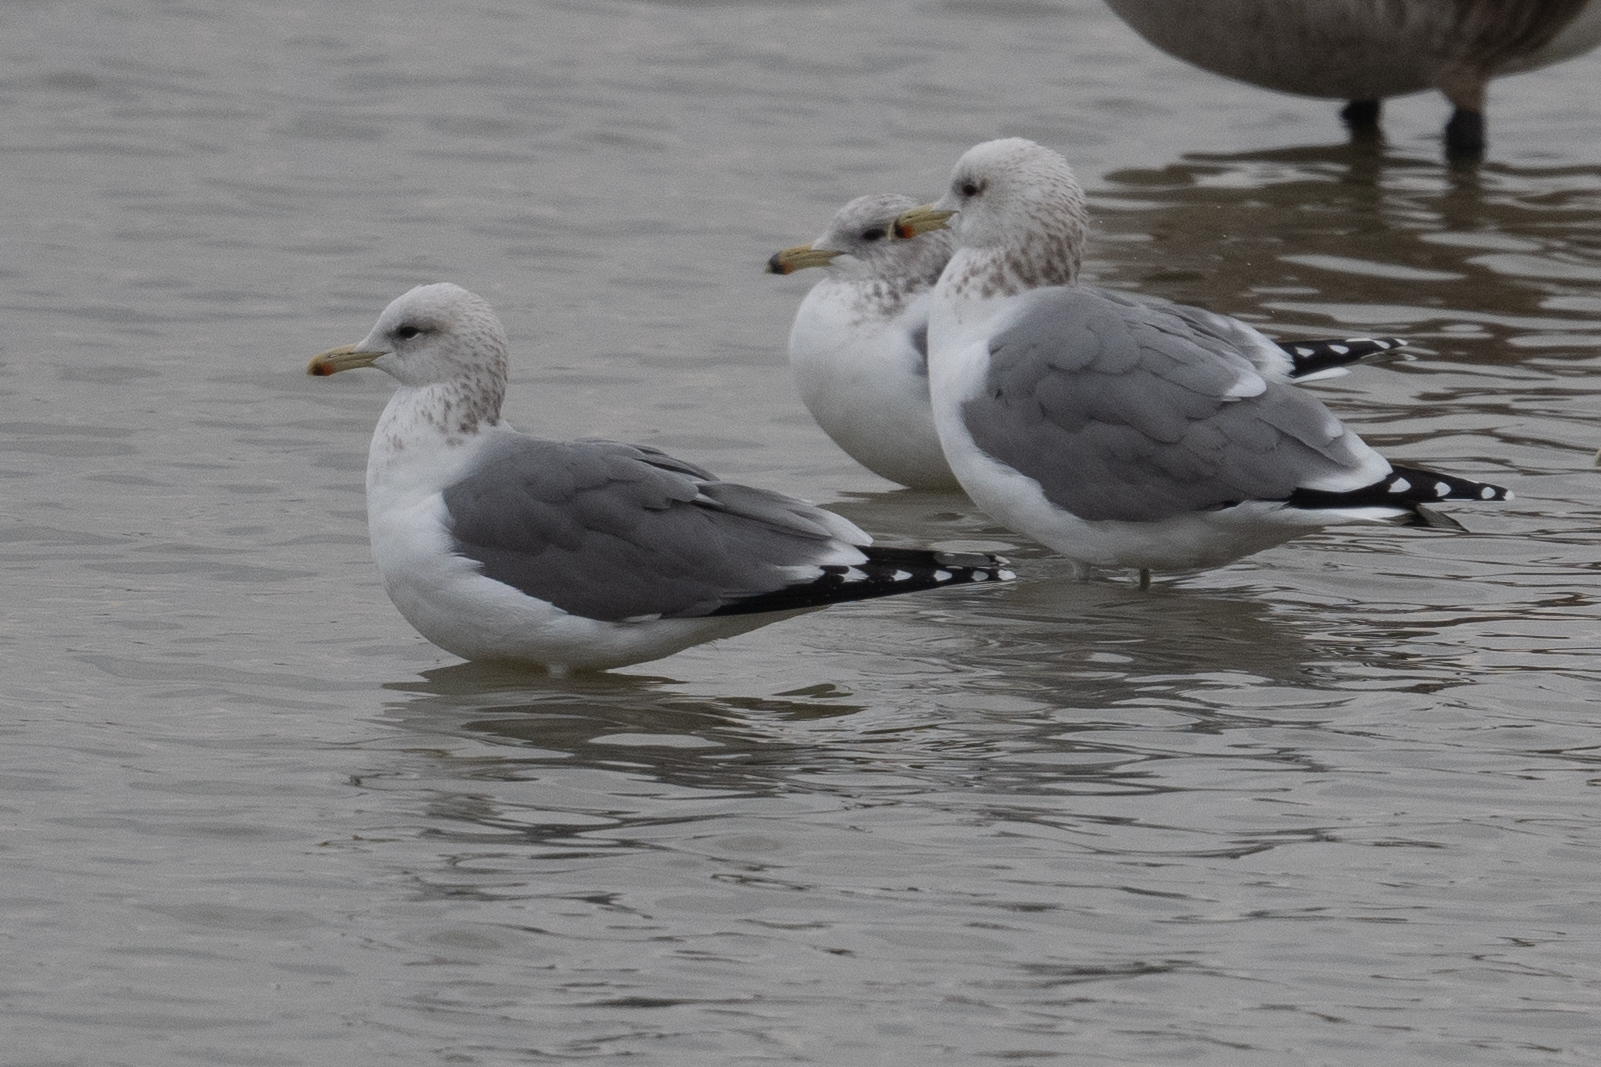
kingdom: Animalia
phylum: Chordata
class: Aves
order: Charadriiformes
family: Laridae
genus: Larus
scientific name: Larus californicus
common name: California gull
